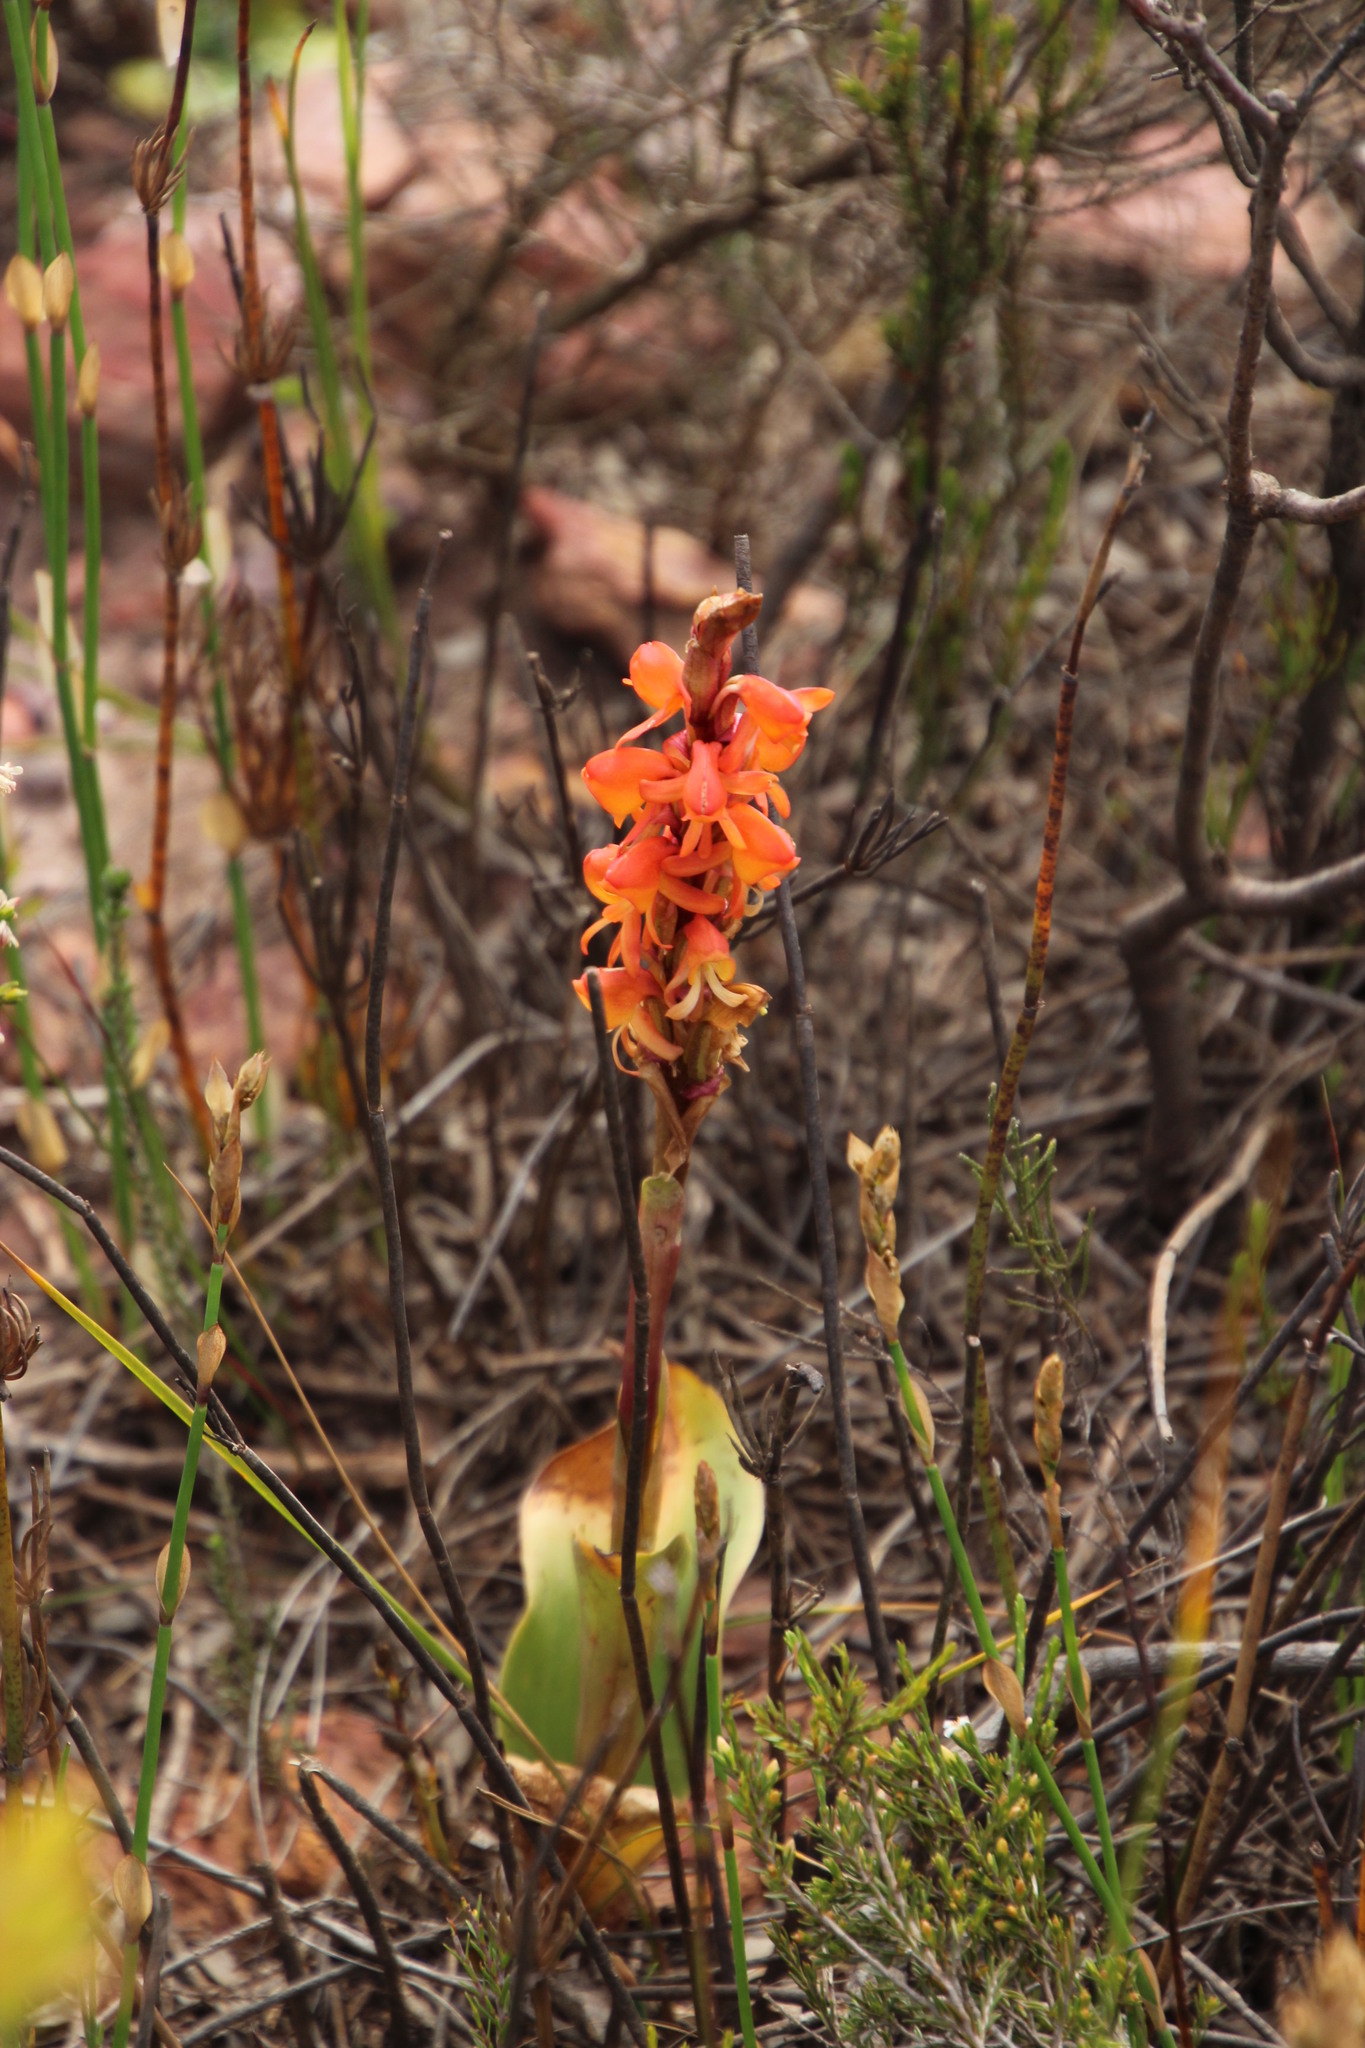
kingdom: Plantae
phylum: Tracheophyta
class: Liliopsida
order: Asparagales
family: Orchidaceae
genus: Satyrium
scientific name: Satyrium coriifolium
